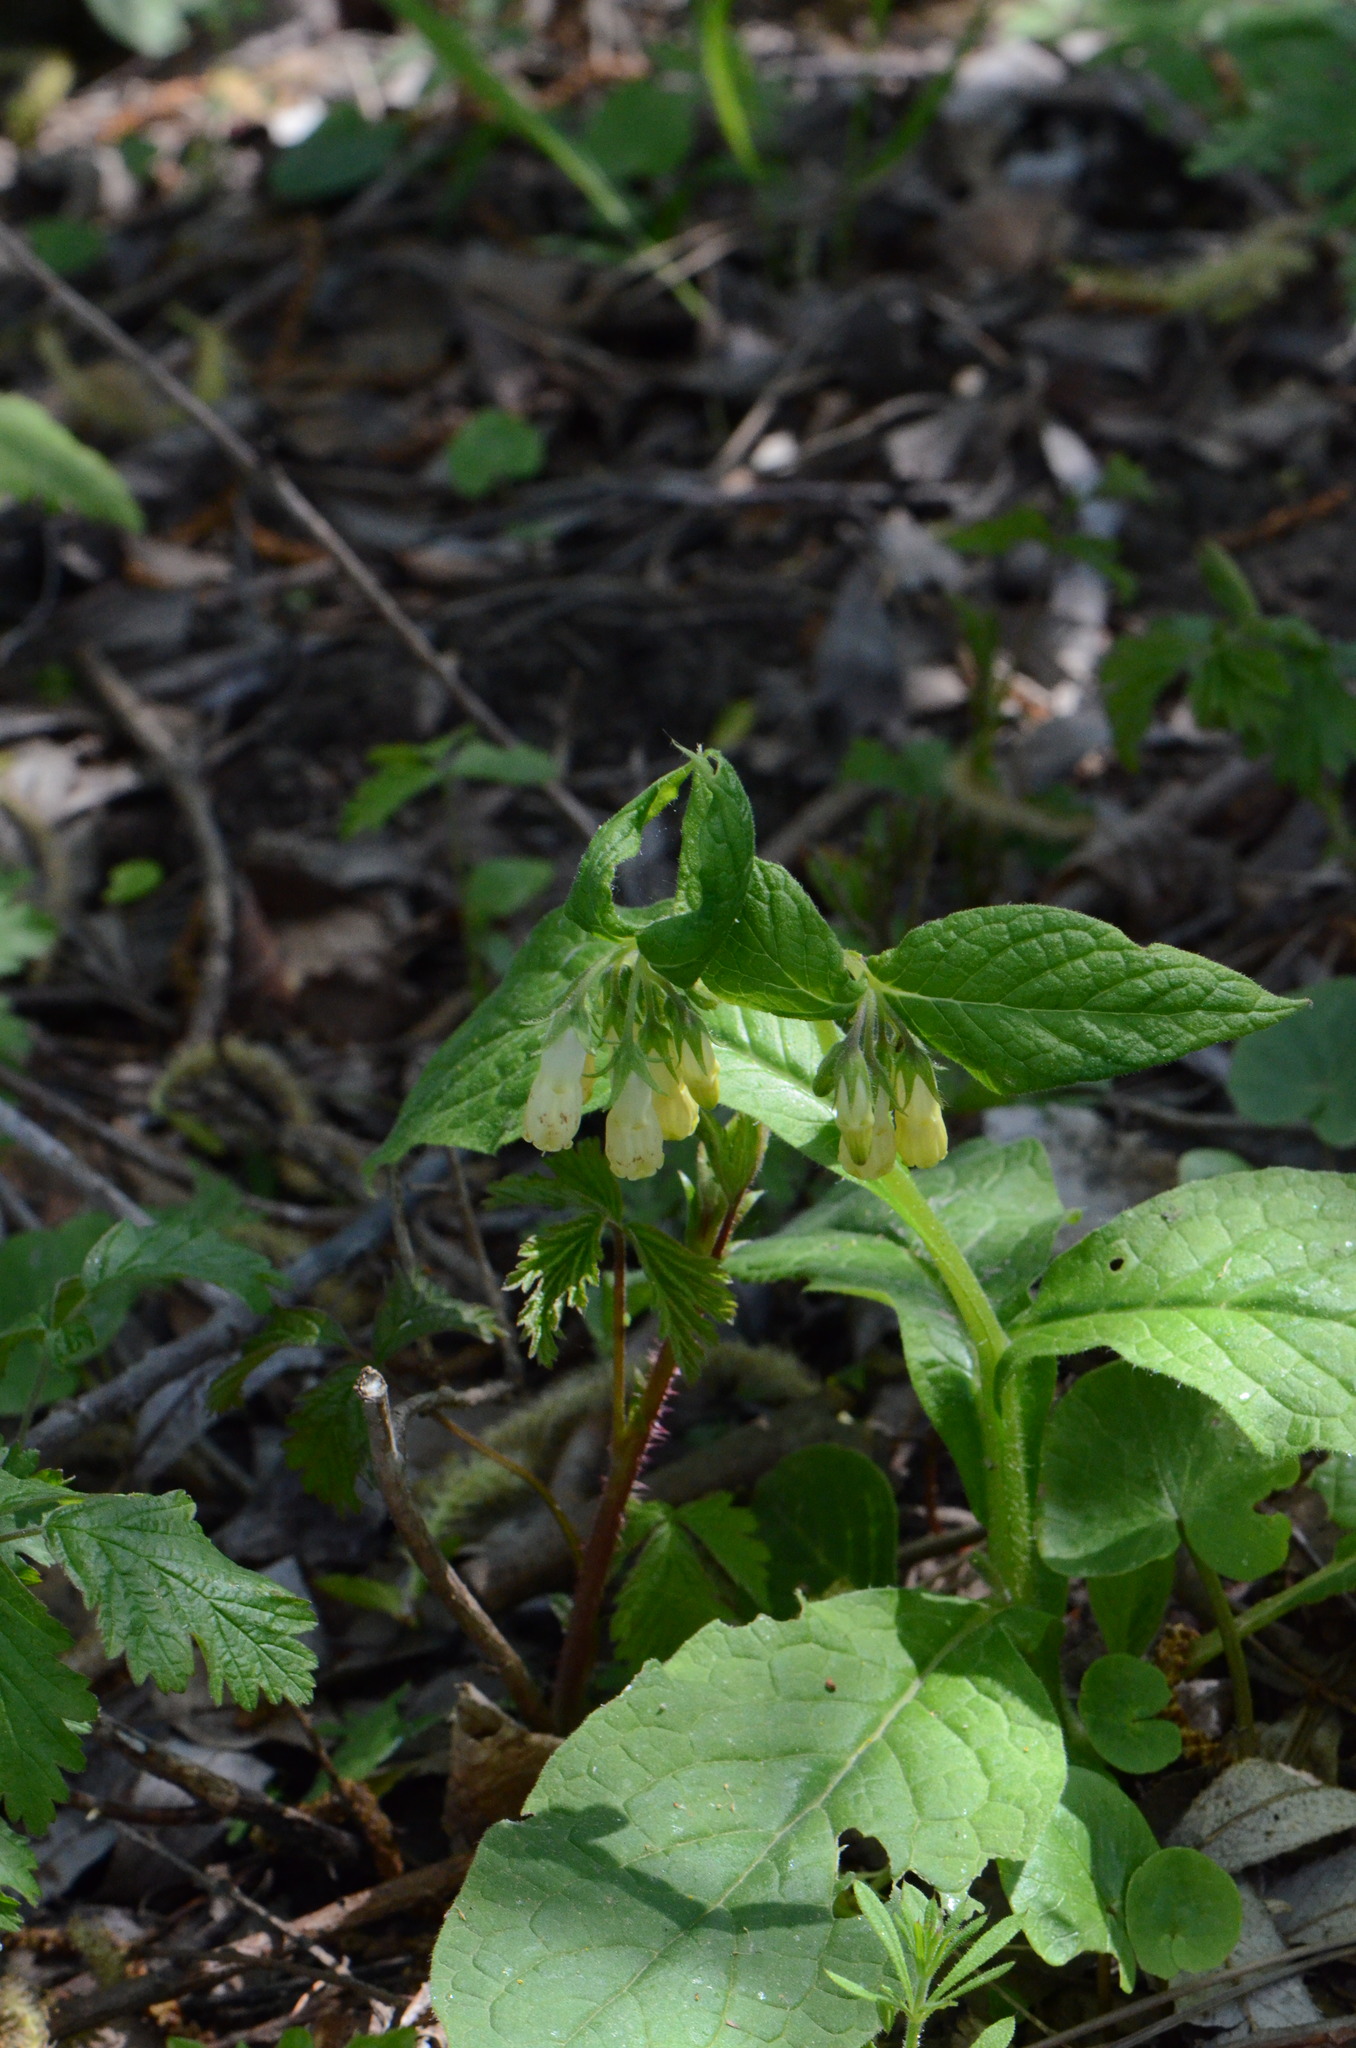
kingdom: Plantae
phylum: Tracheophyta
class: Magnoliopsida
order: Boraginales
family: Boraginaceae
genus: Symphytum
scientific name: Symphytum tuberosum
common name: Tuberous comfrey
